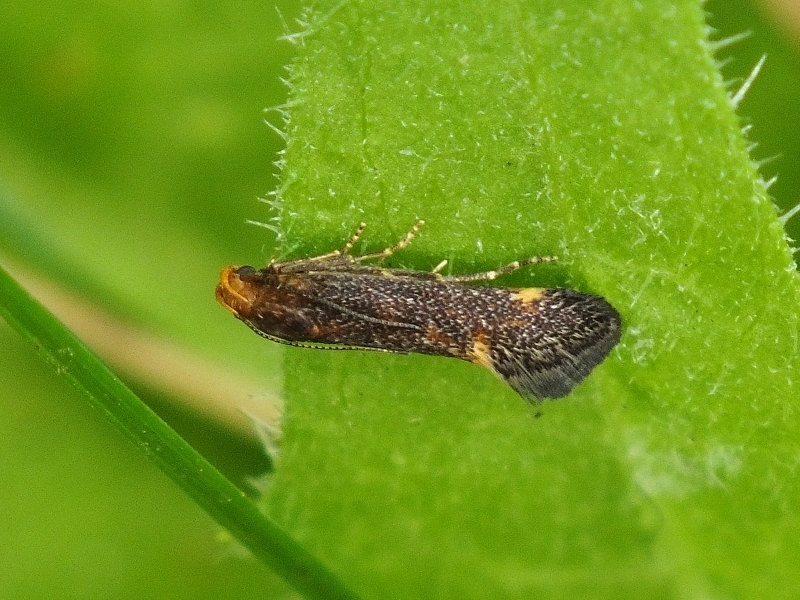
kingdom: Animalia
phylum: Arthropoda
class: Insecta
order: Lepidoptera
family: Gelechiidae
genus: Apodia
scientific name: Apodia bifractella
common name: Dark fleabane neb
